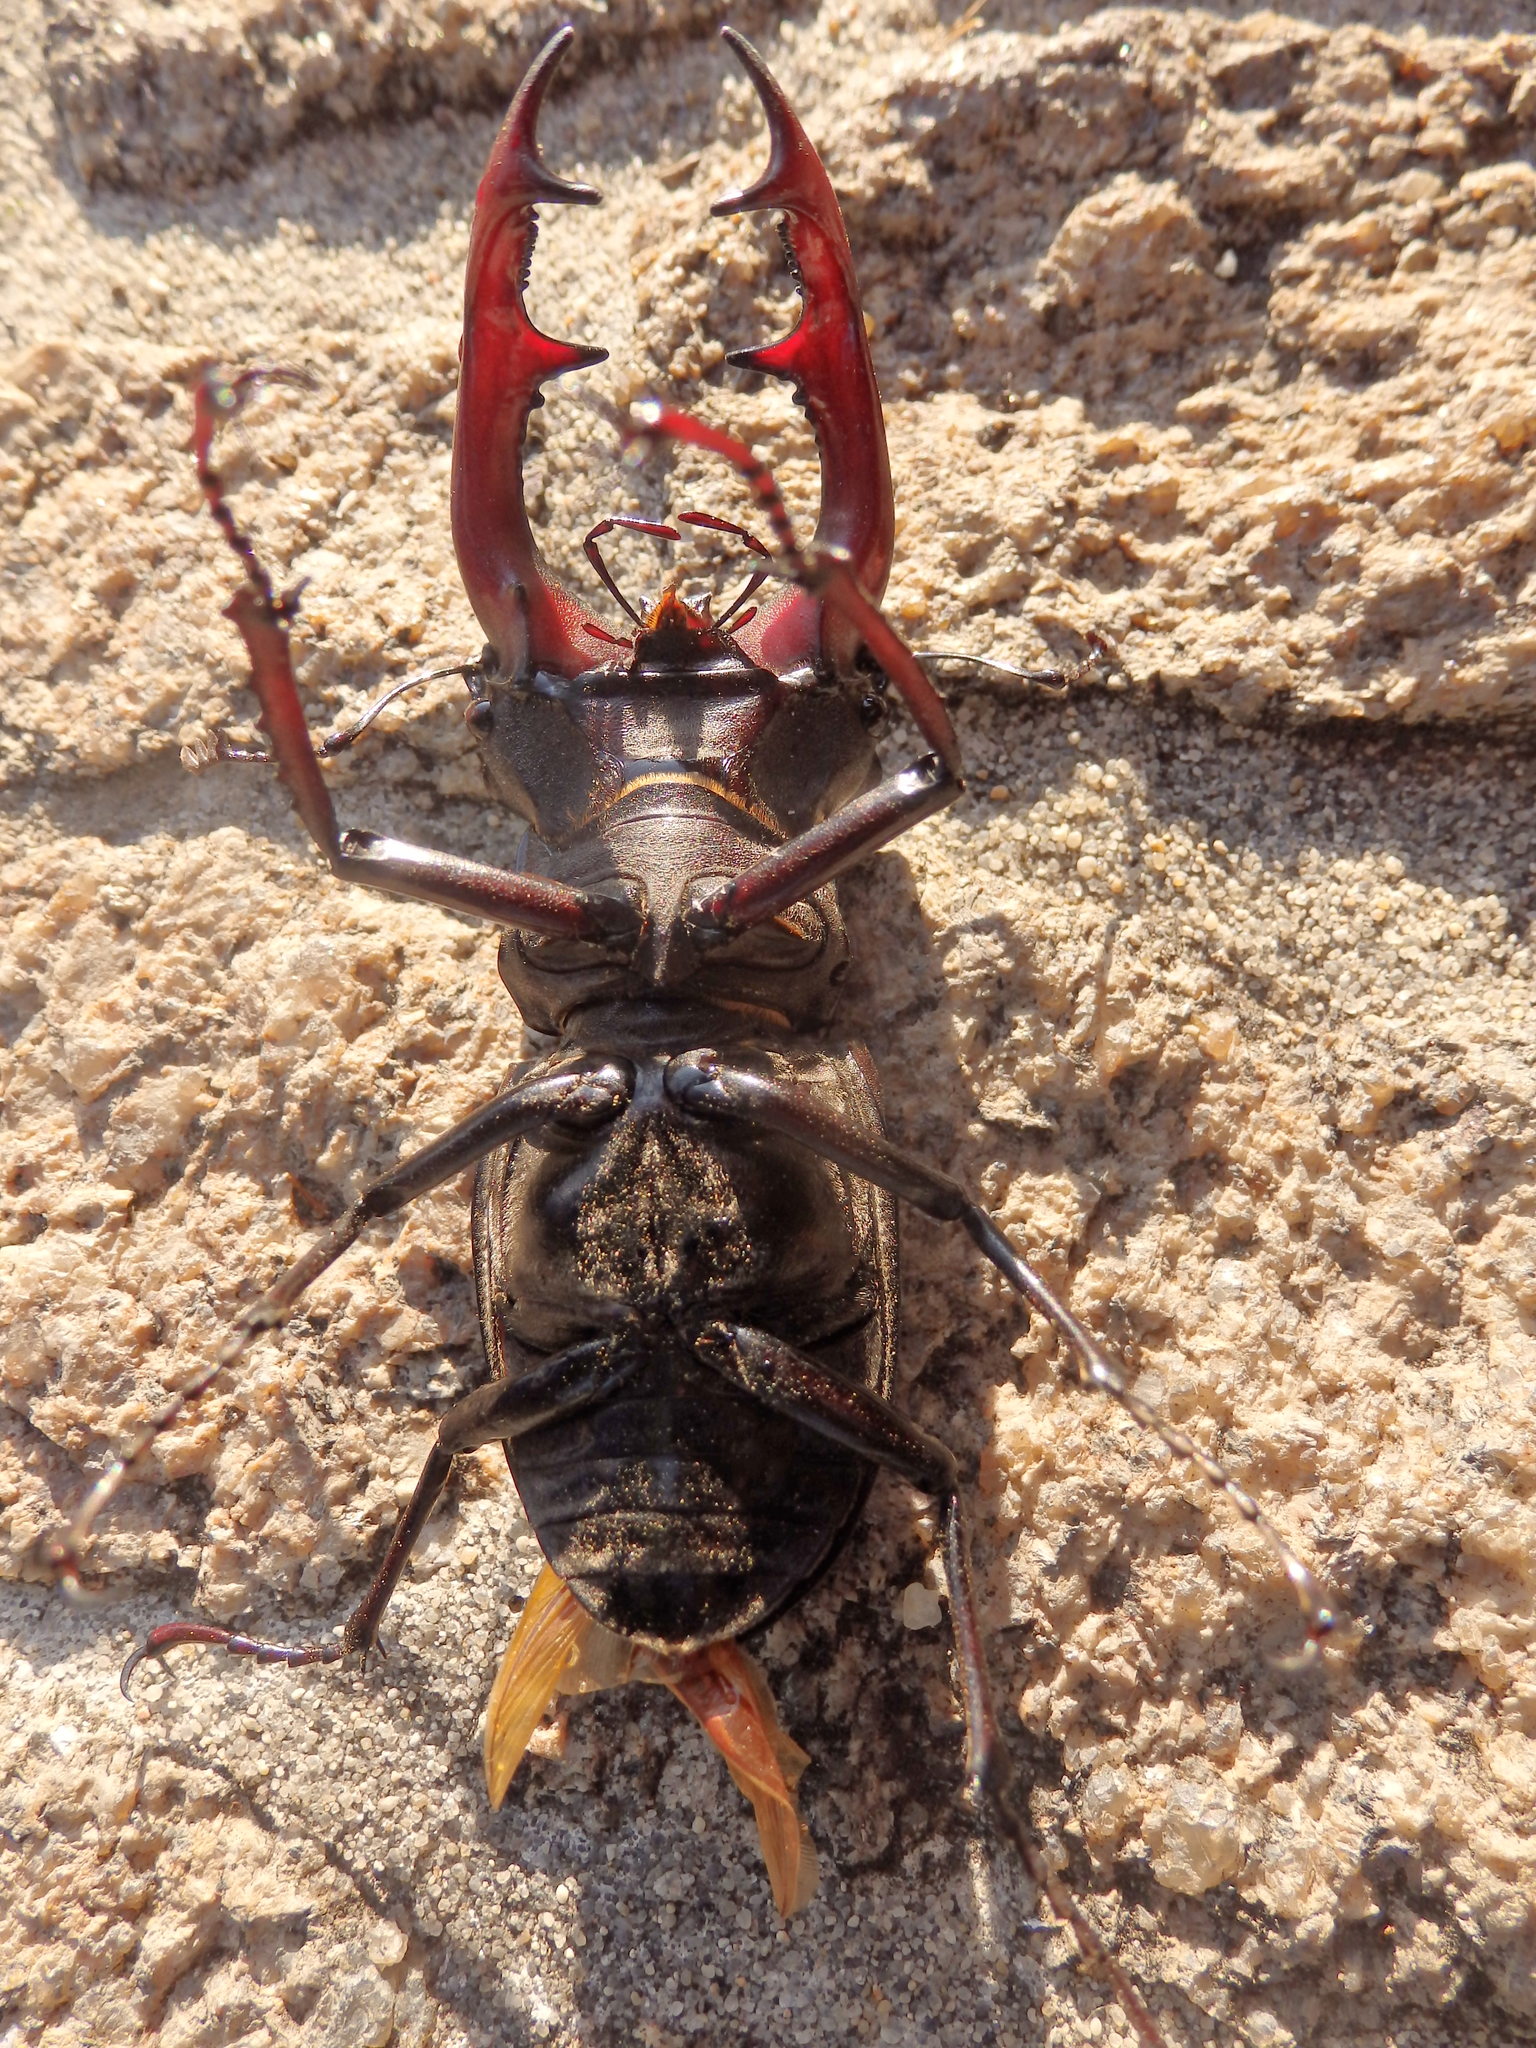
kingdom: Animalia
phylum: Arthropoda
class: Insecta
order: Coleoptera
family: Lucanidae
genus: Lucanus
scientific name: Lucanus cervus
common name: Stag beetle
